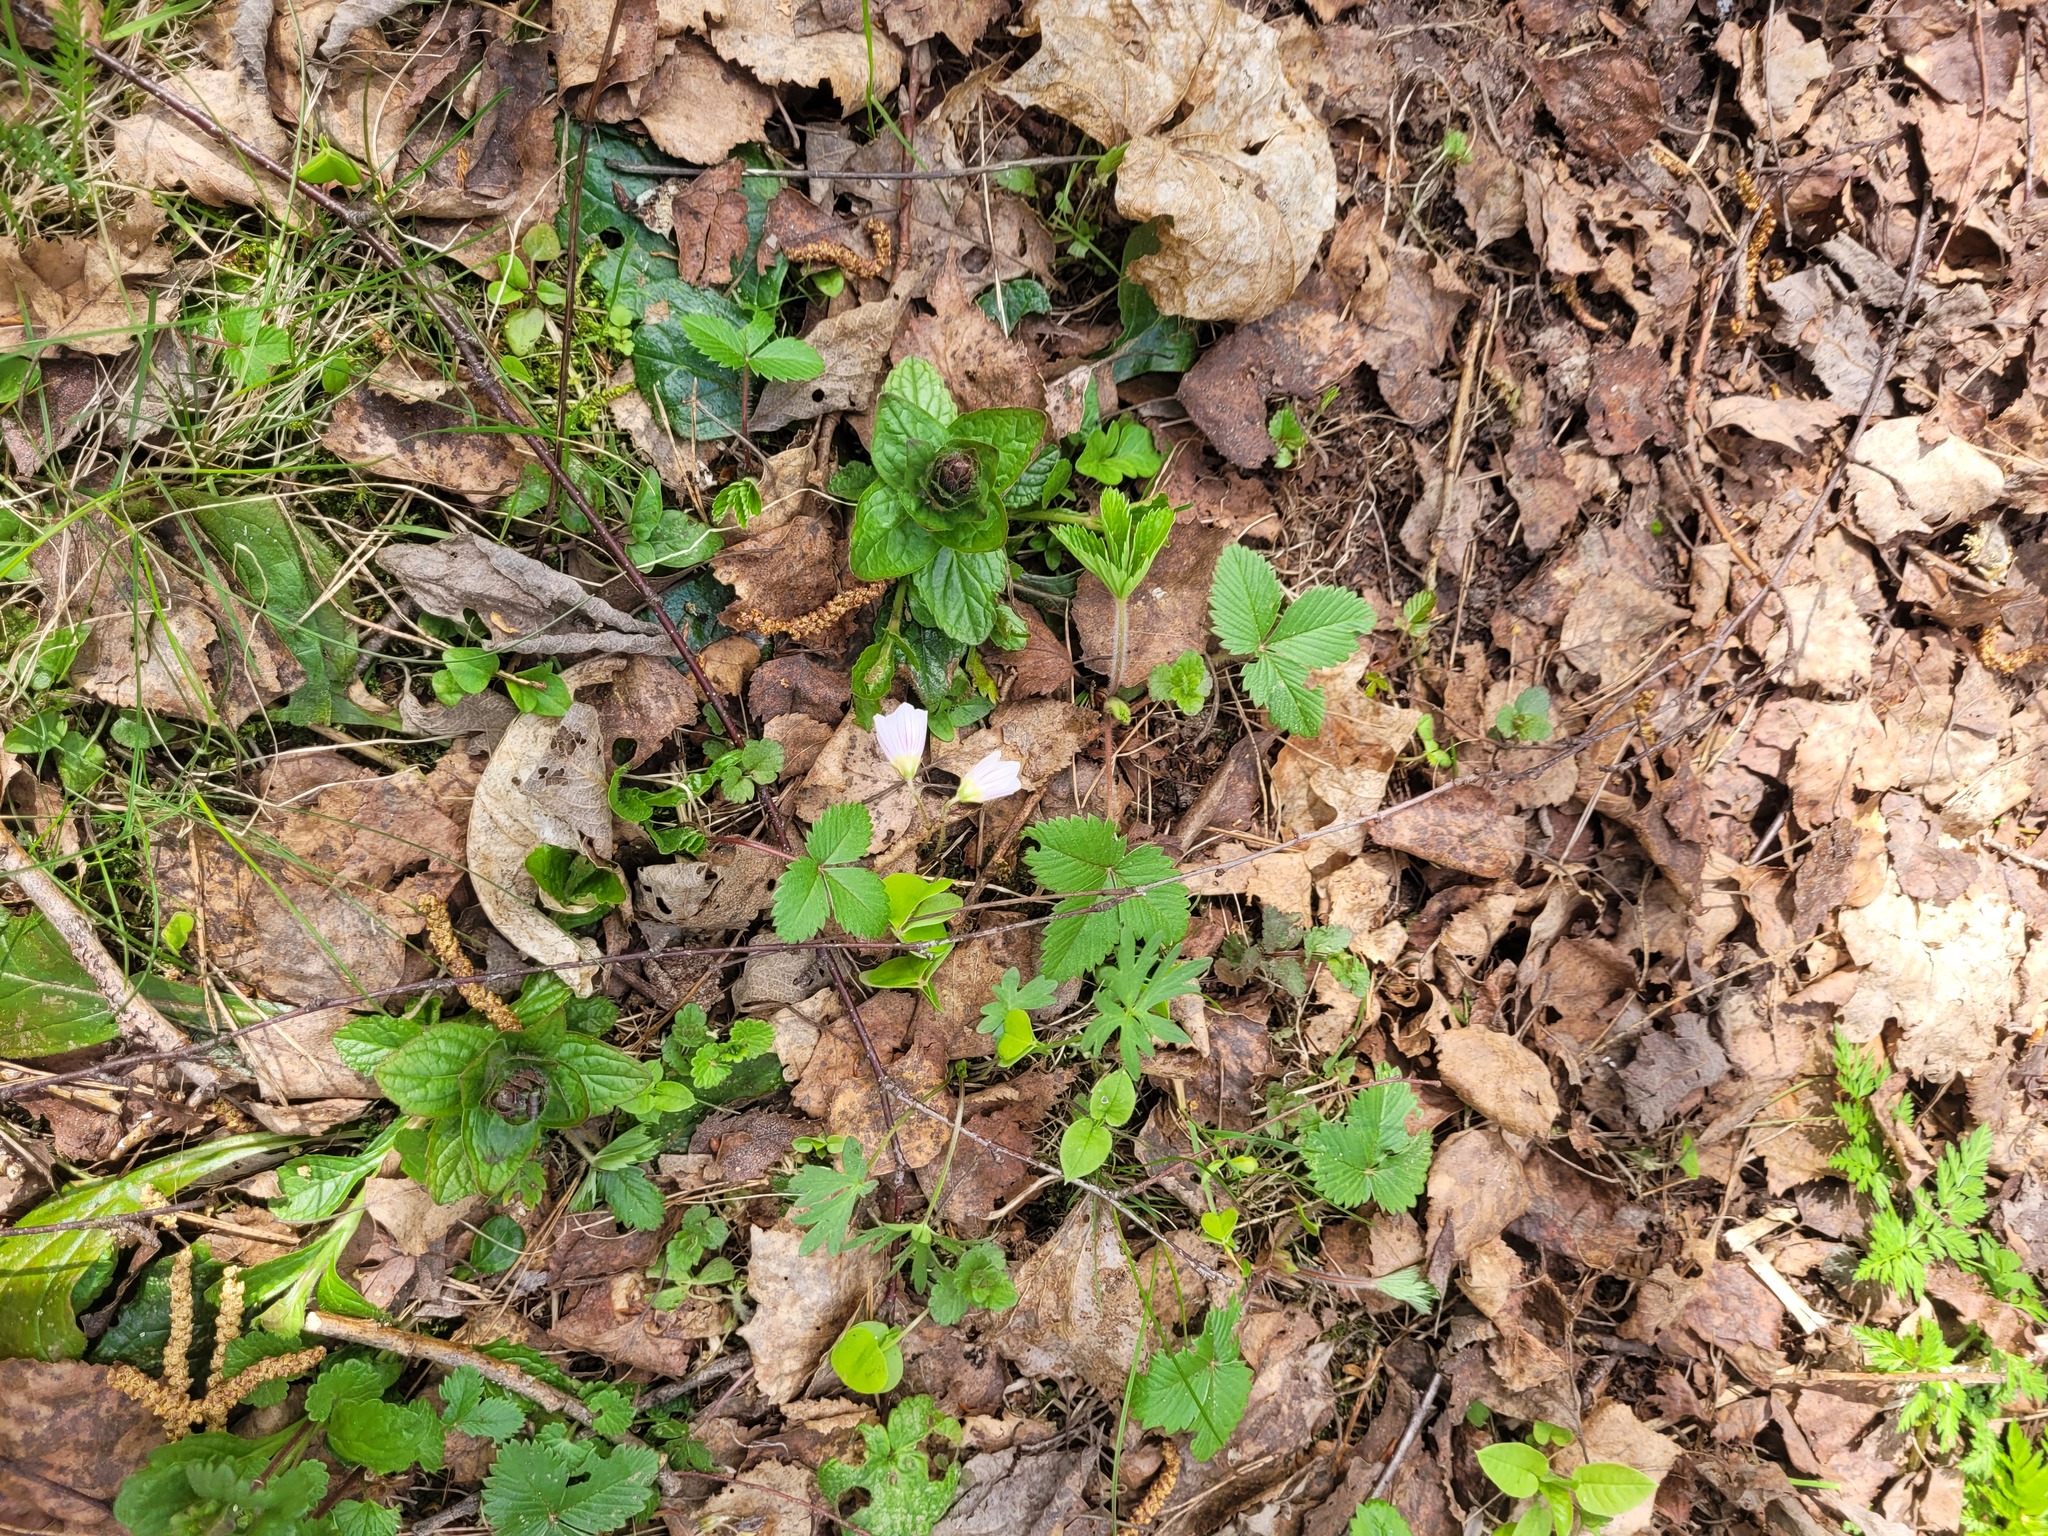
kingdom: Plantae
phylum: Tracheophyta
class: Magnoliopsida
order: Lamiales
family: Lamiaceae
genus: Ajuga
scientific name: Ajuga reptans
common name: Bugle
